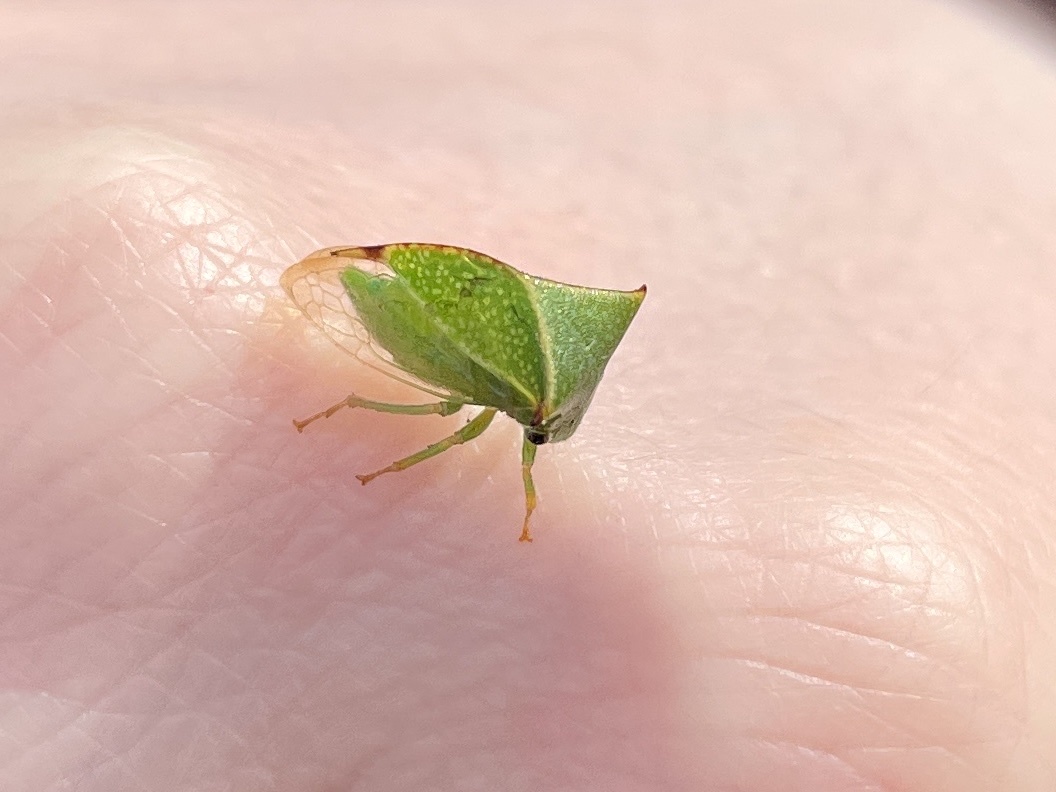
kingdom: Animalia
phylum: Arthropoda
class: Insecta
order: Hemiptera
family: Membracidae
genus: Stictocephala
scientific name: Stictocephala bisonia
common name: American buffalo treehopper
